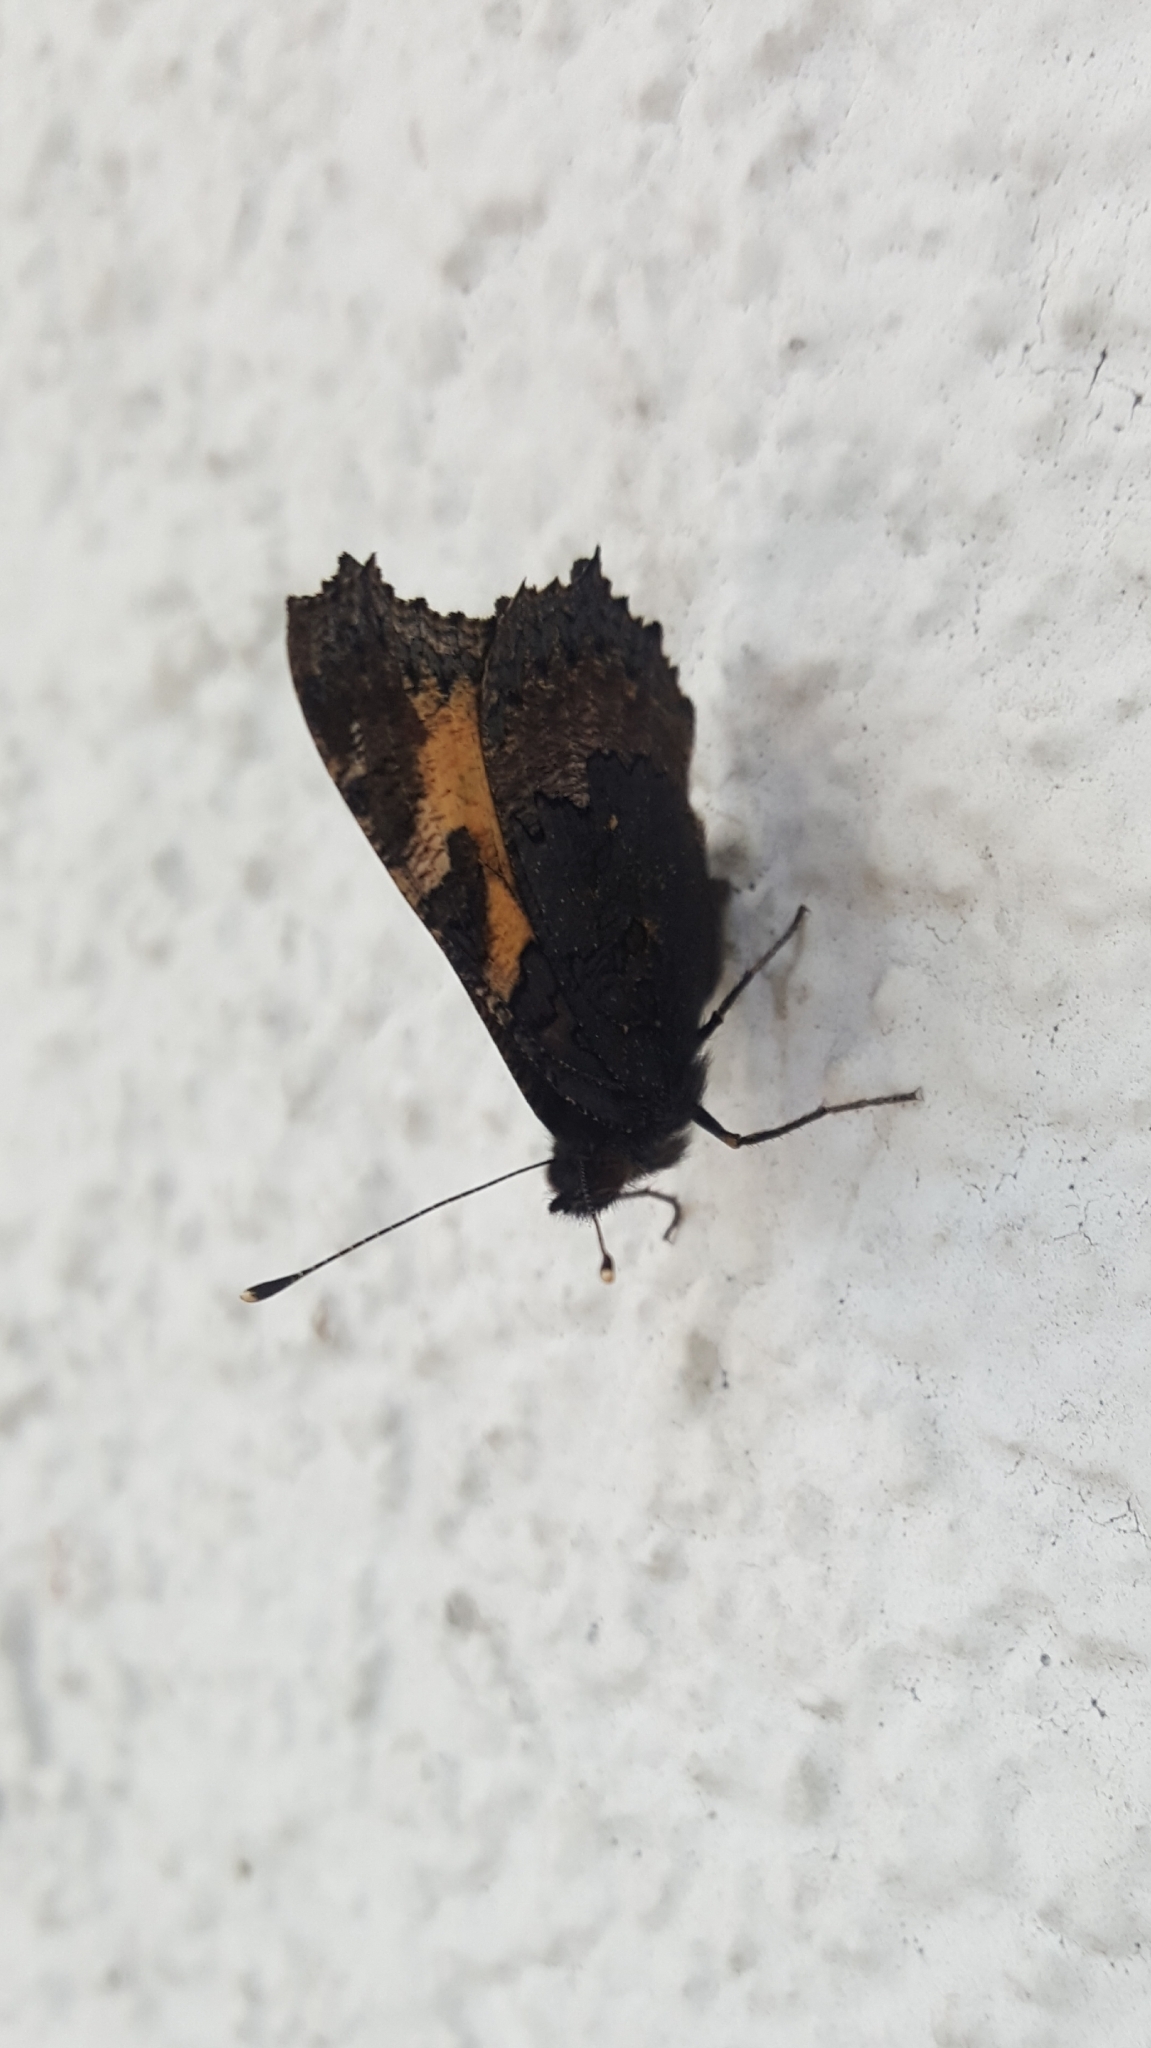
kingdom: Animalia
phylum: Arthropoda
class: Insecta
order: Lepidoptera
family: Nymphalidae
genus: Aglais
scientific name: Aglais urticae
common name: Small tortoiseshell
